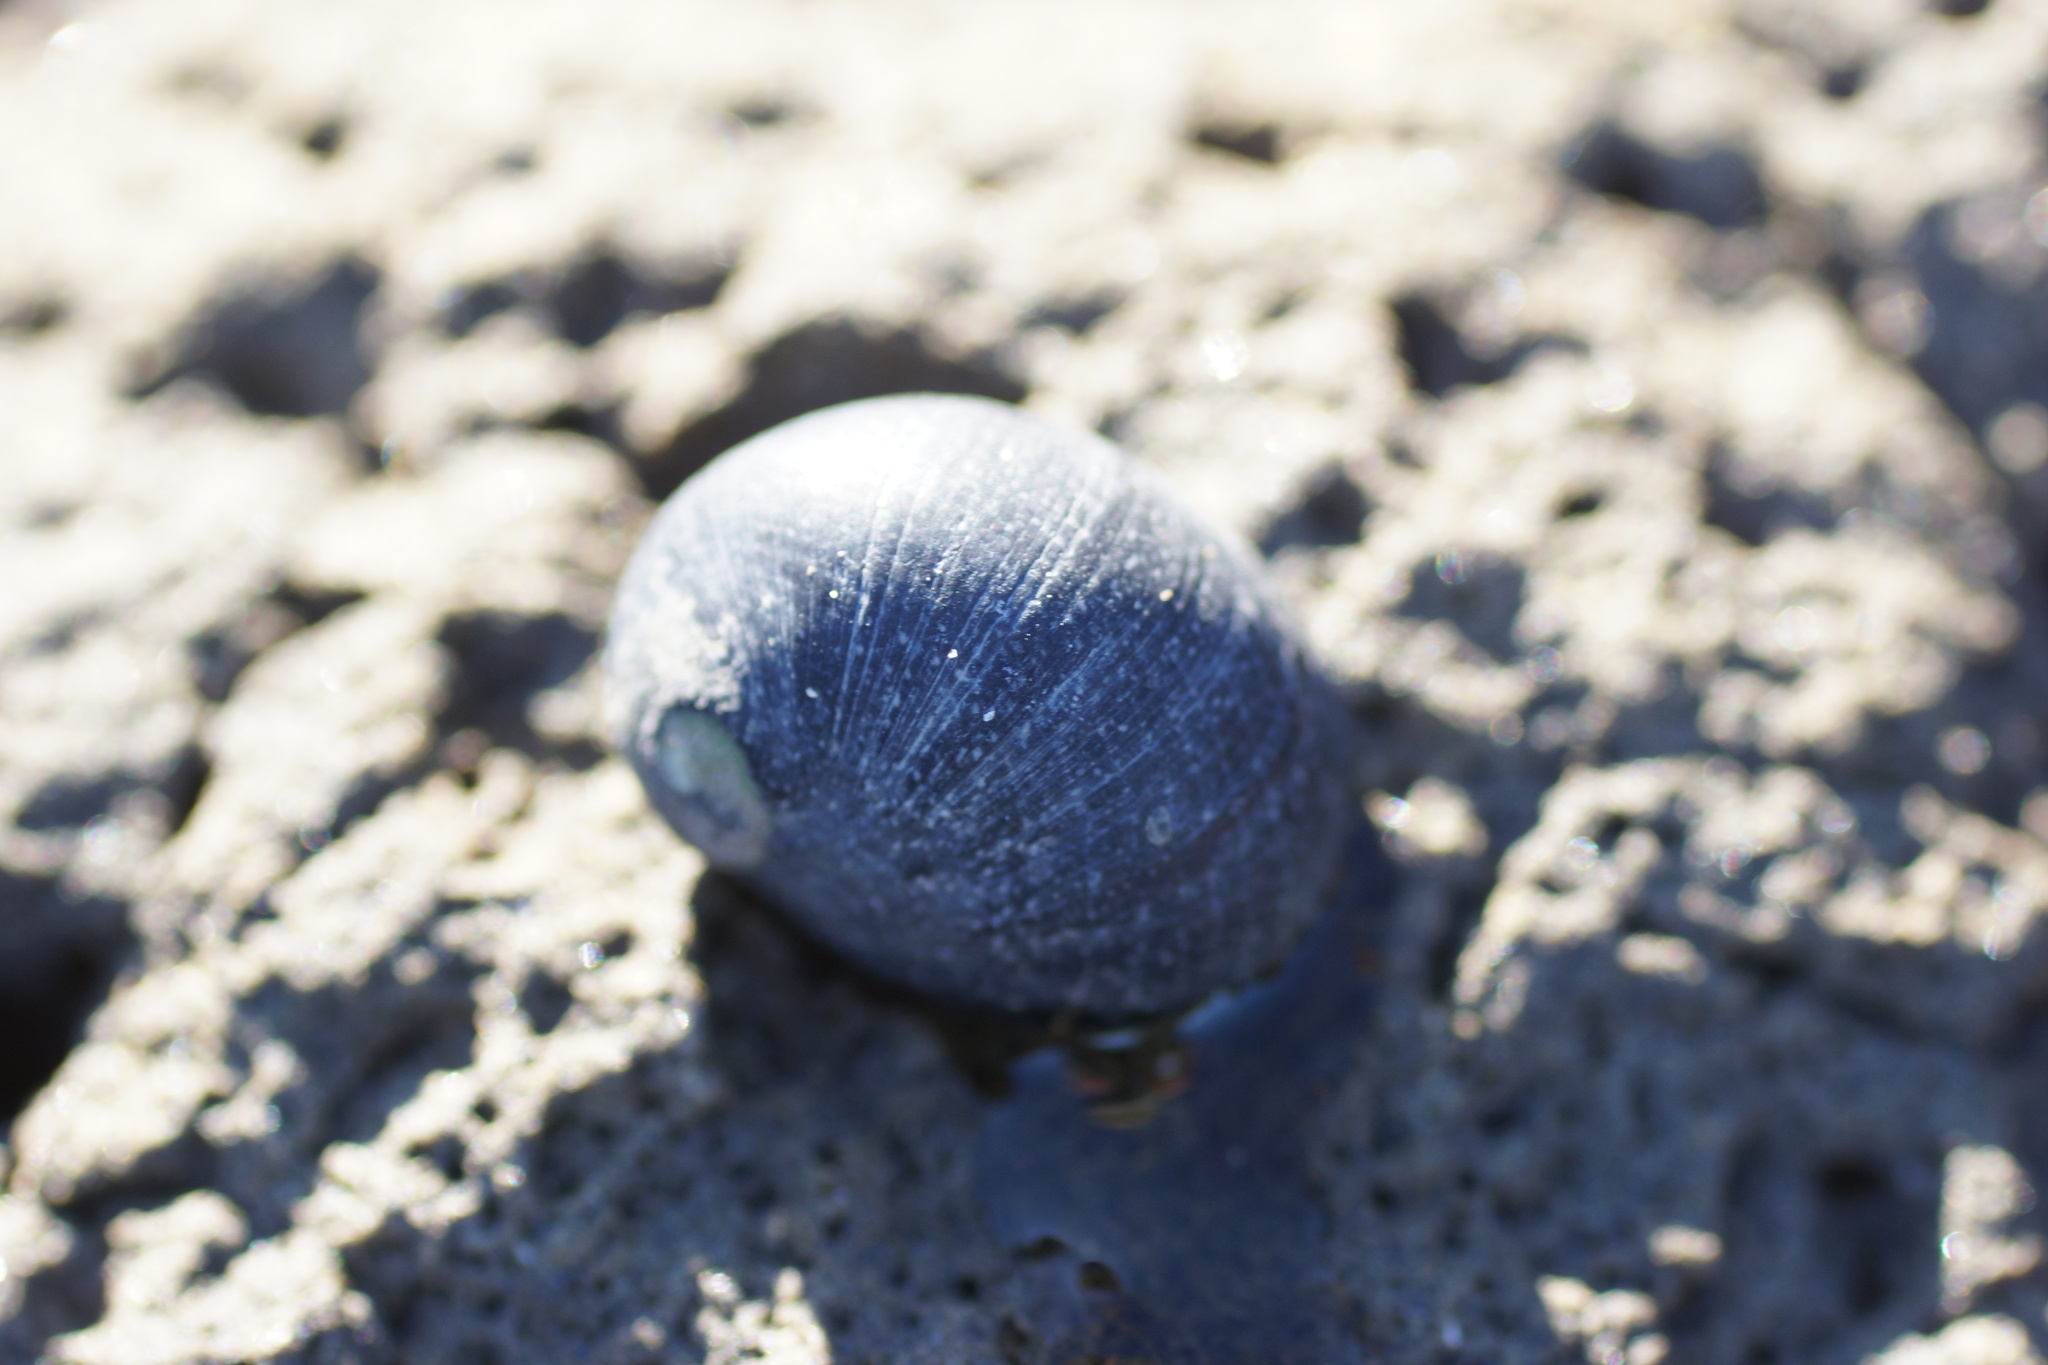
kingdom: Animalia
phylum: Mollusca
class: Gastropoda
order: Cycloneritida
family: Neritidae
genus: Nerita
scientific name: Nerita atramentosa
